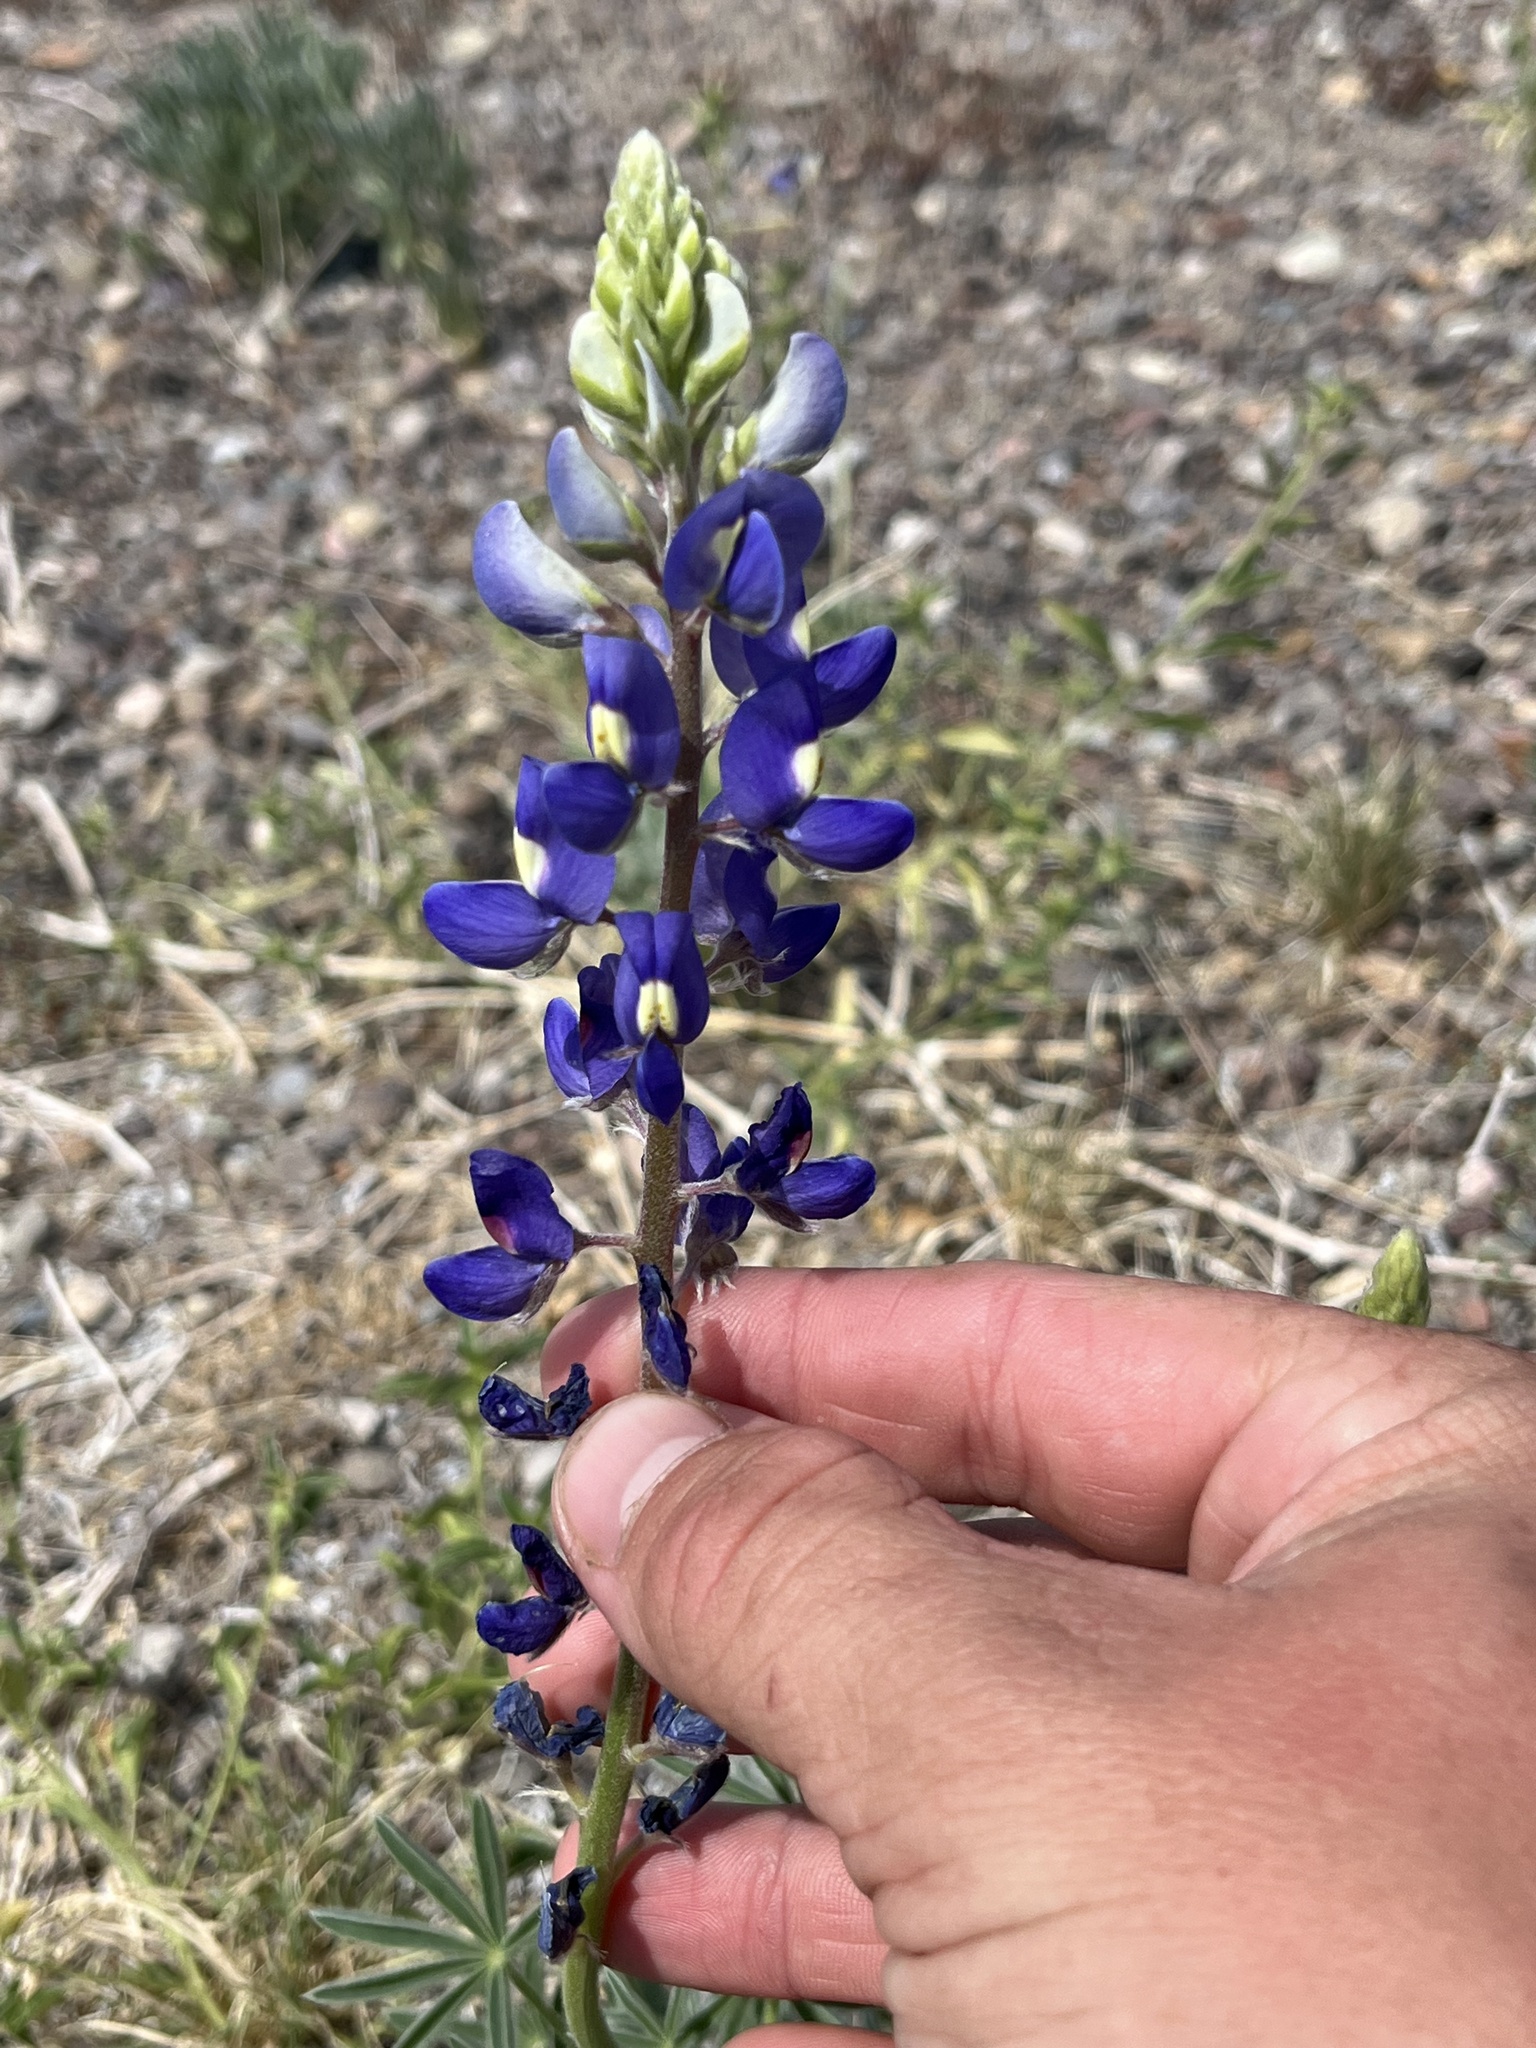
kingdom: Plantae
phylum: Tracheophyta
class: Magnoliopsida
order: Fabales
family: Fabaceae
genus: Lupinus
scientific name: Lupinus havardii
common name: Chisos bluebonnet
